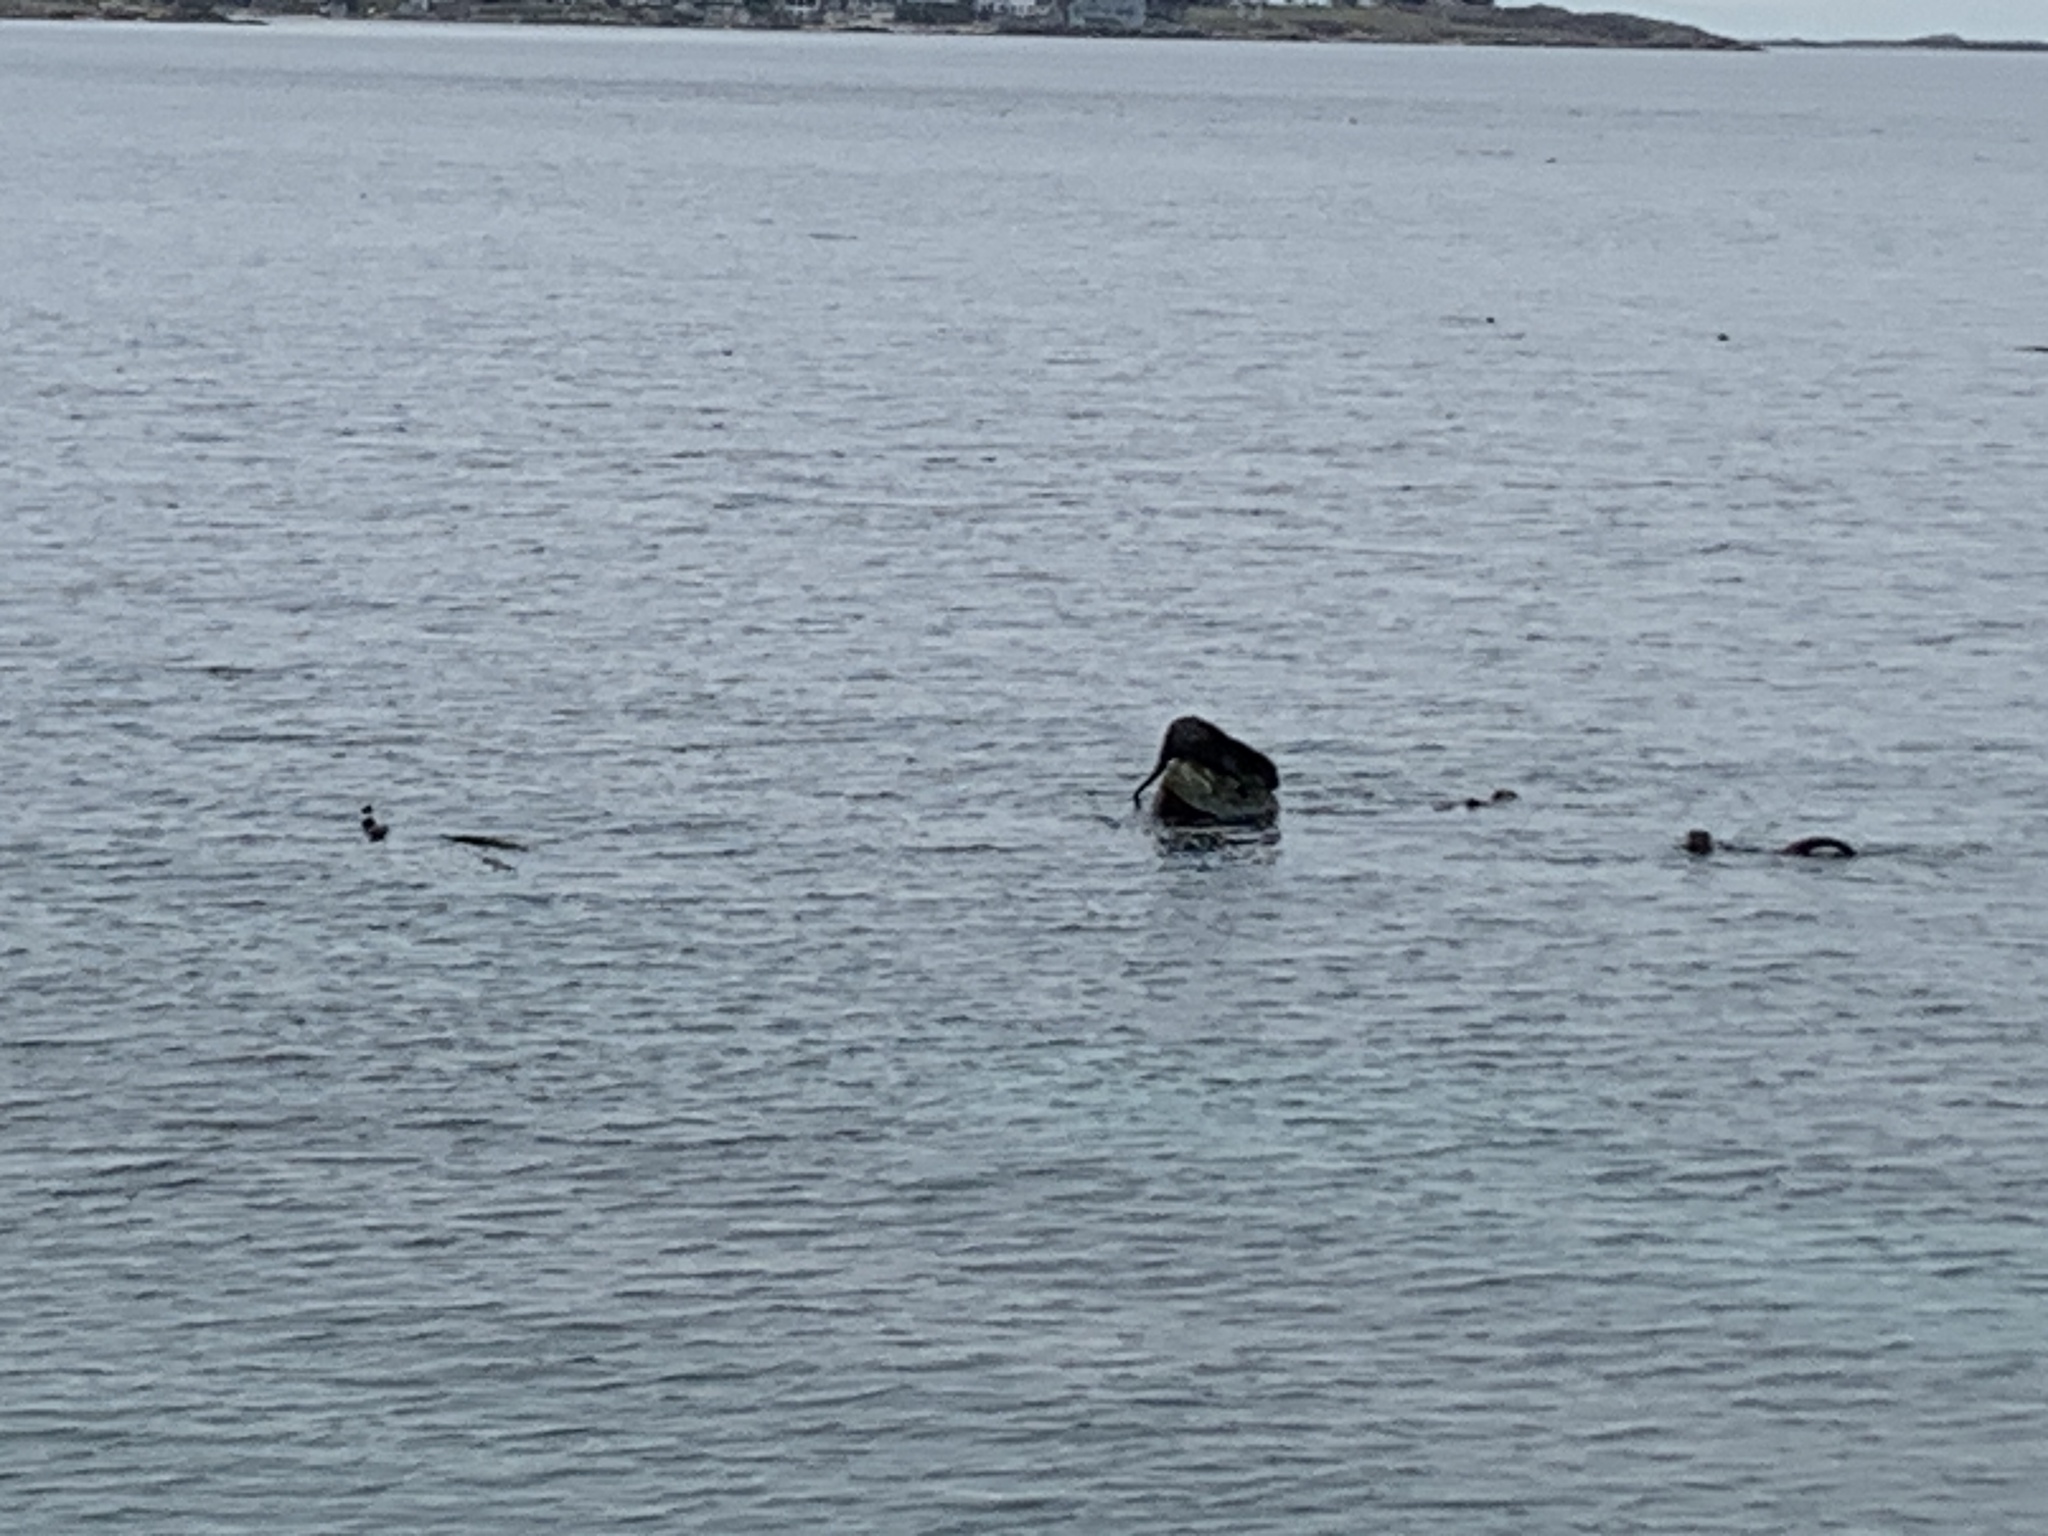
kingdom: Animalia
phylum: Chordata
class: Mammalia
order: Carnivora
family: Mustelidae
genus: Lontra
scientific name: Lontra canadensis
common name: North american river otter
